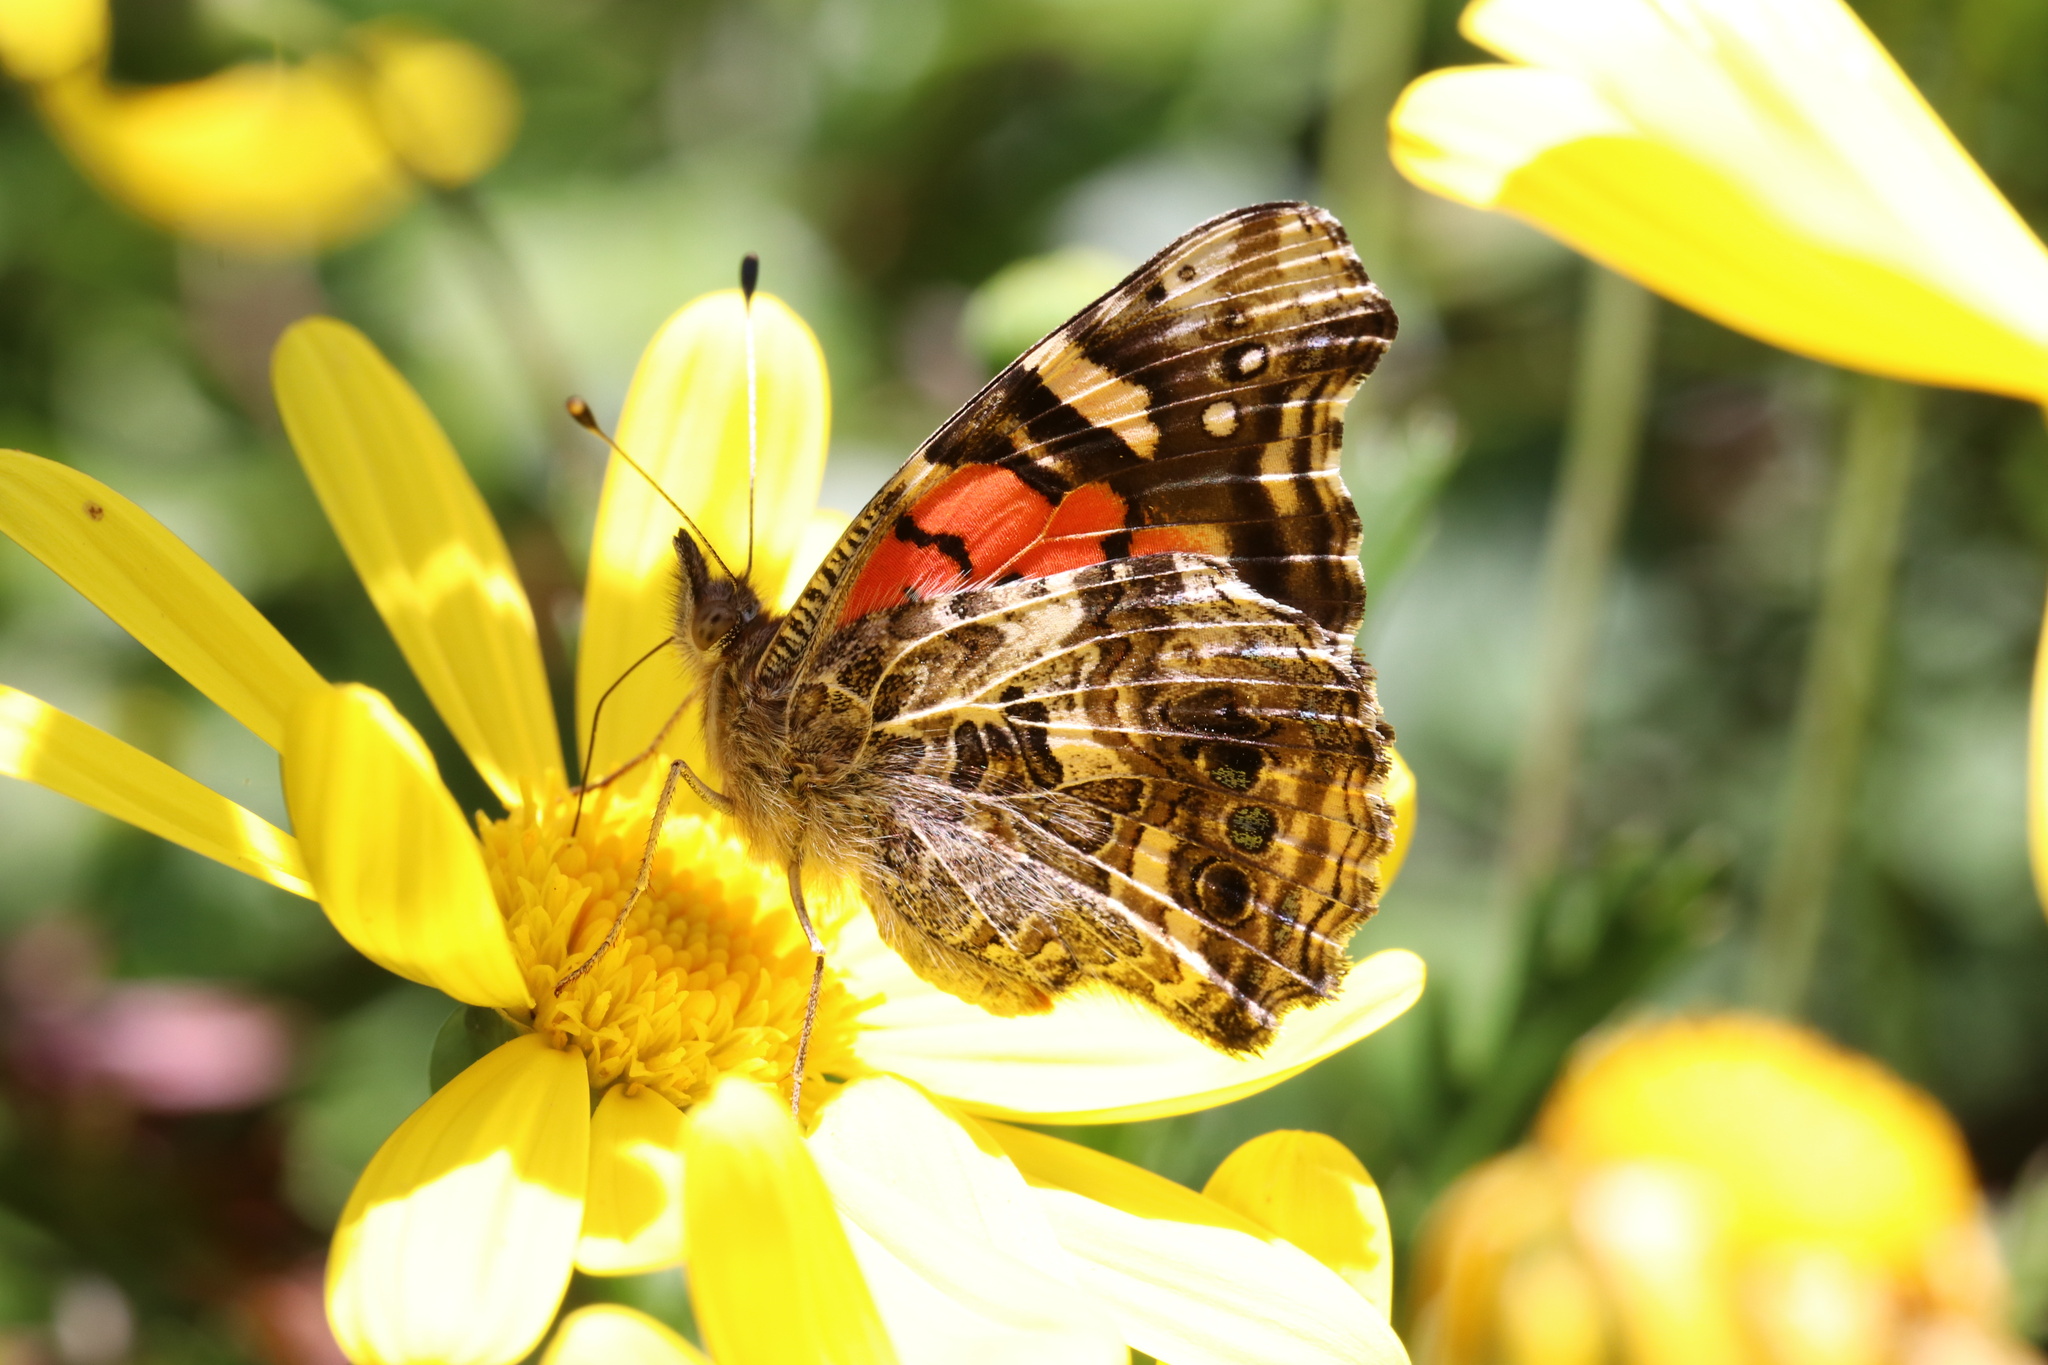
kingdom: Animalia
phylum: Arthropoda
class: Insecta
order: Lepidoptera
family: Nymphalidae
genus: Vanessa
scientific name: Vanessa carye
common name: Subtropical lady
